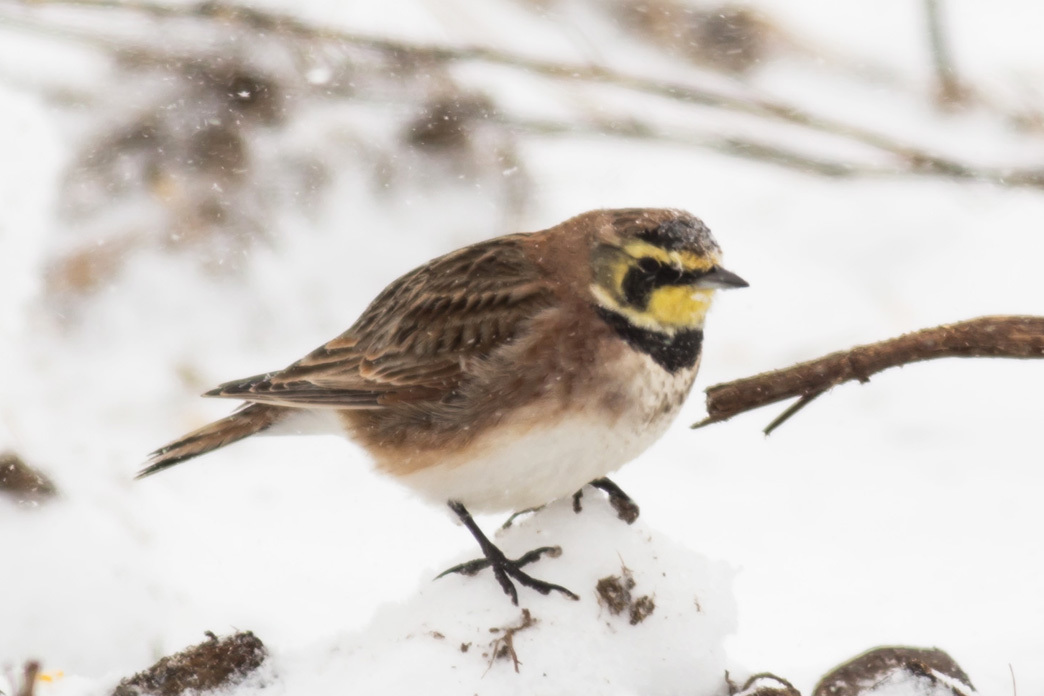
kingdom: Animalia
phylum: Chordata
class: Aves
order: Passeriformes
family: Alaudidae
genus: Eremophila
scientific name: Eremophila alpestris
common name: Horned lark
